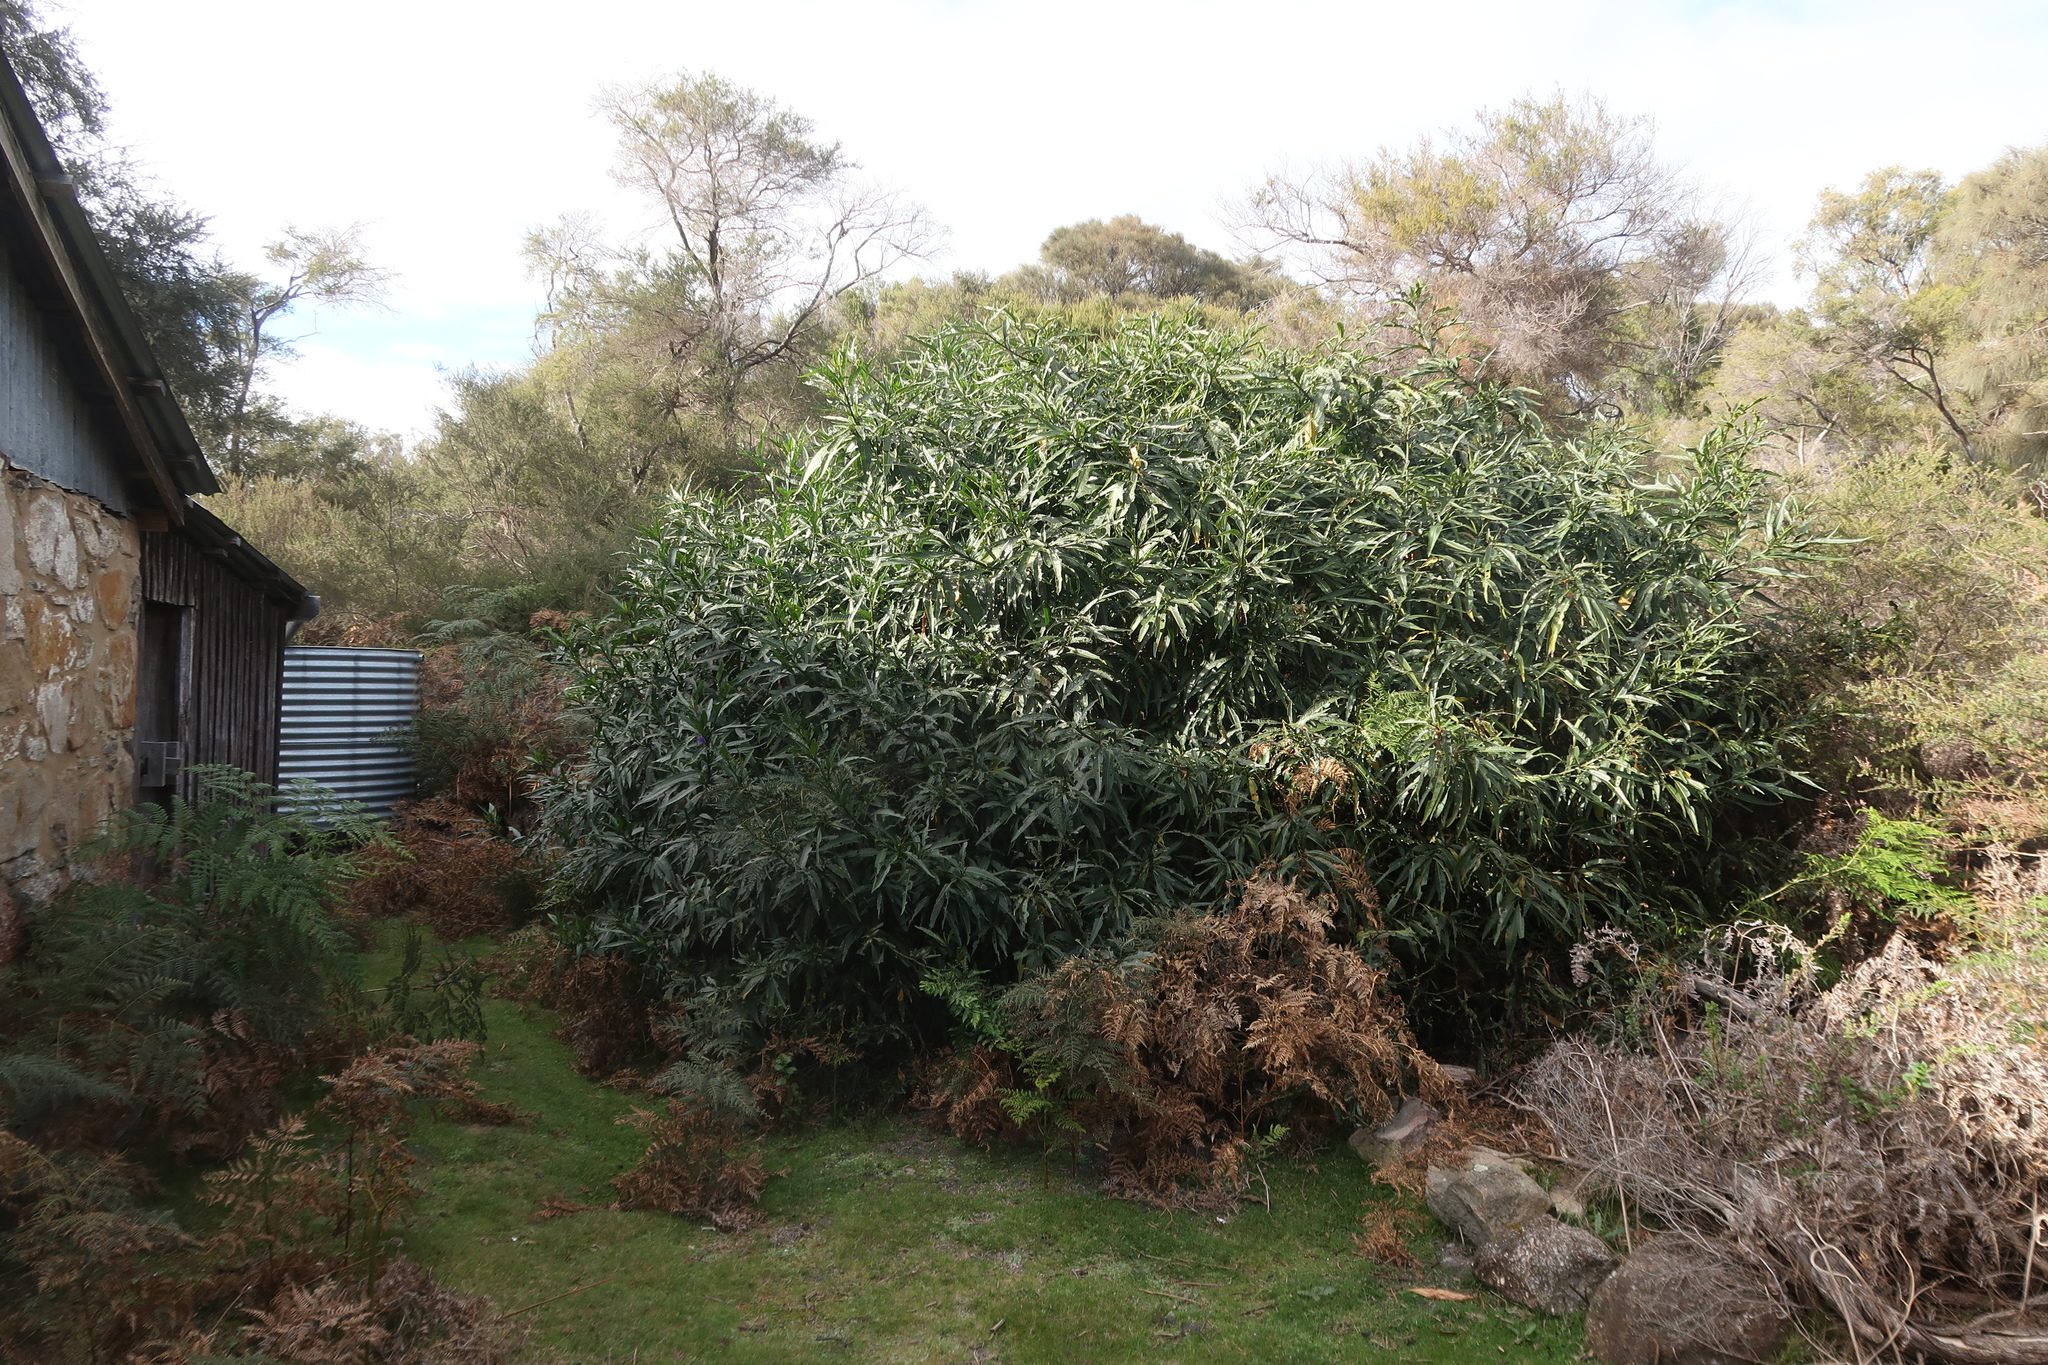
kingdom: Plantae
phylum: Tracheophyta
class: Magnoliopsida
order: Solanales
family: Solanaceae
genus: Solanum
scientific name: Solanum laciniatum
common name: Kangaroo-apple
